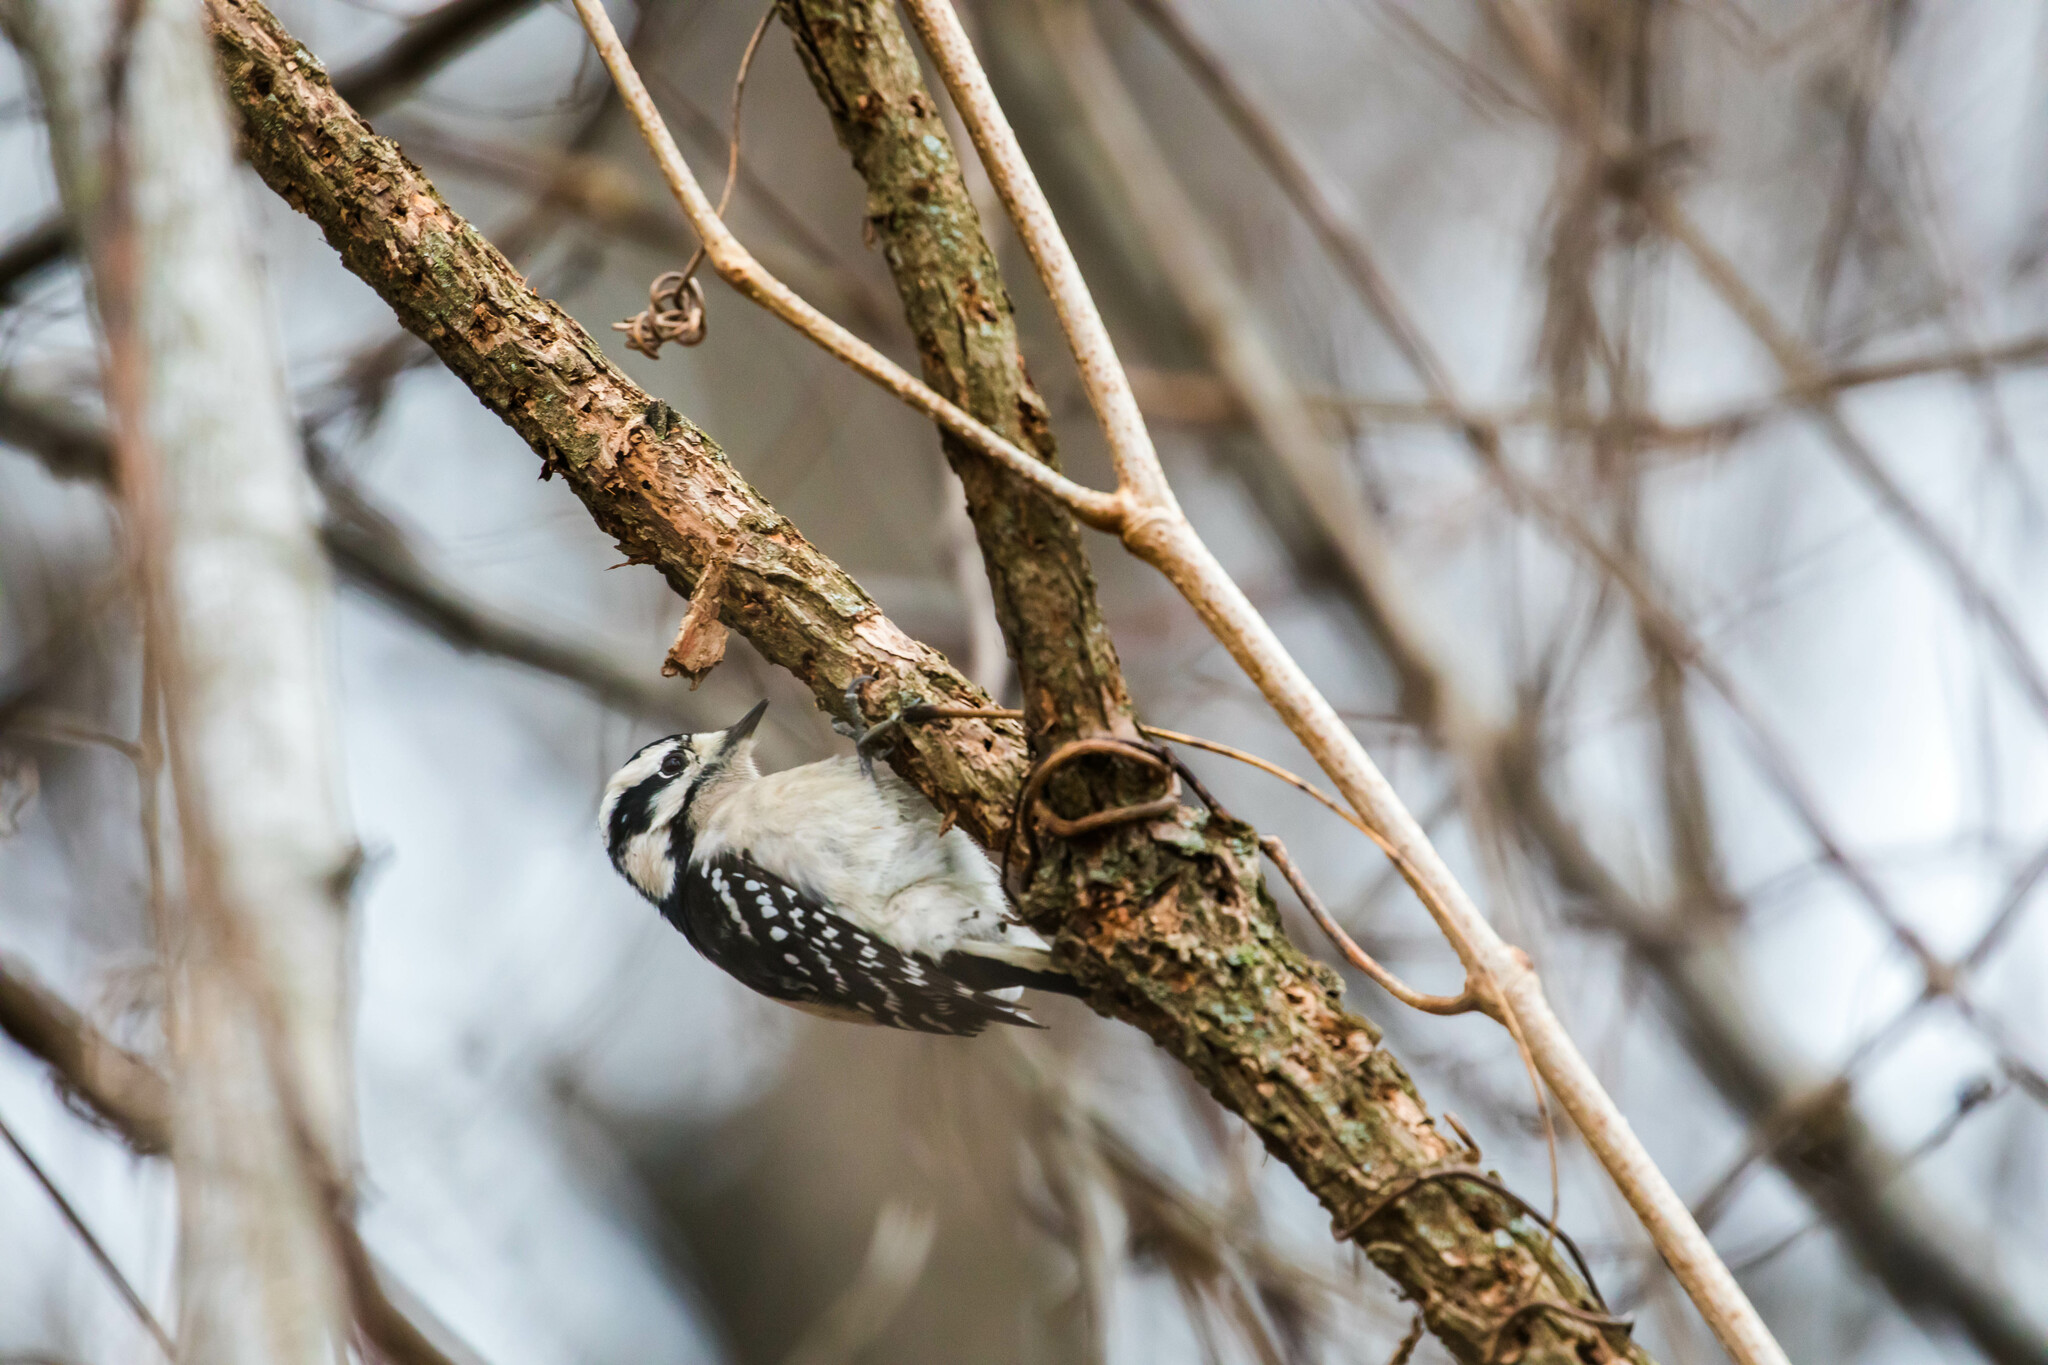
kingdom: Animalia
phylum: Chordata
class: Aves
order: Piciformes
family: Picidae
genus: Dryobates
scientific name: Dryobates pubescens
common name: Downy woodpecker
